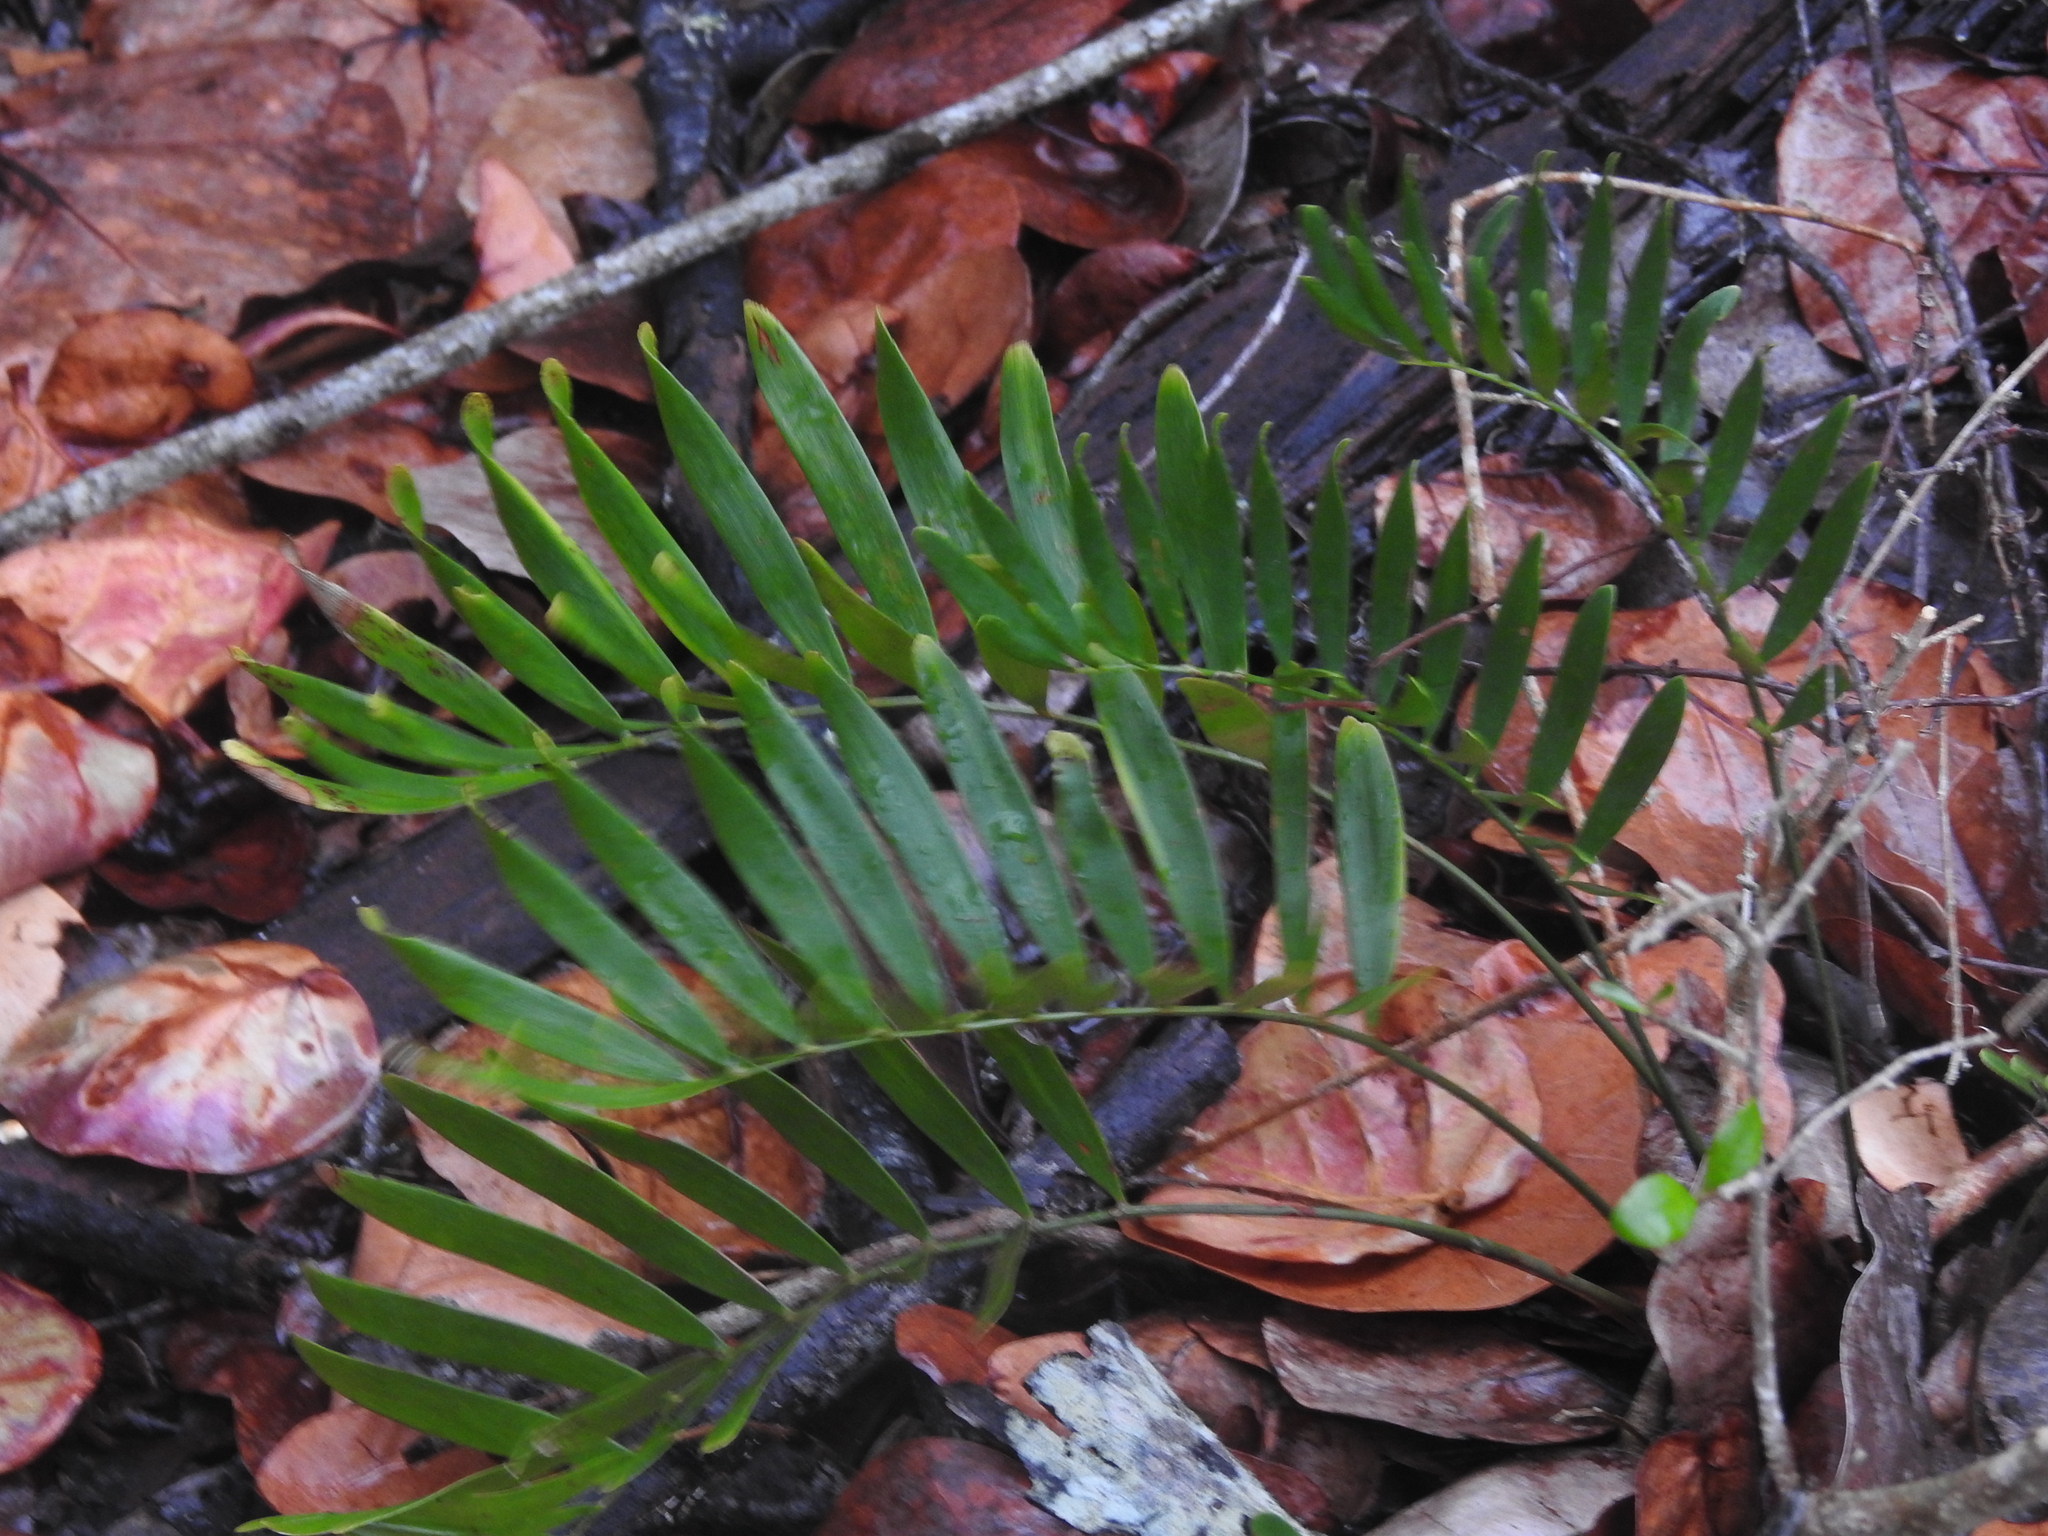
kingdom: Plantae
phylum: Tracheophyta
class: Cycadopsida
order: Cycadales
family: Zamiaceae
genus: Zamia
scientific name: Zamia integrifolia
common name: Florida arrowroot
